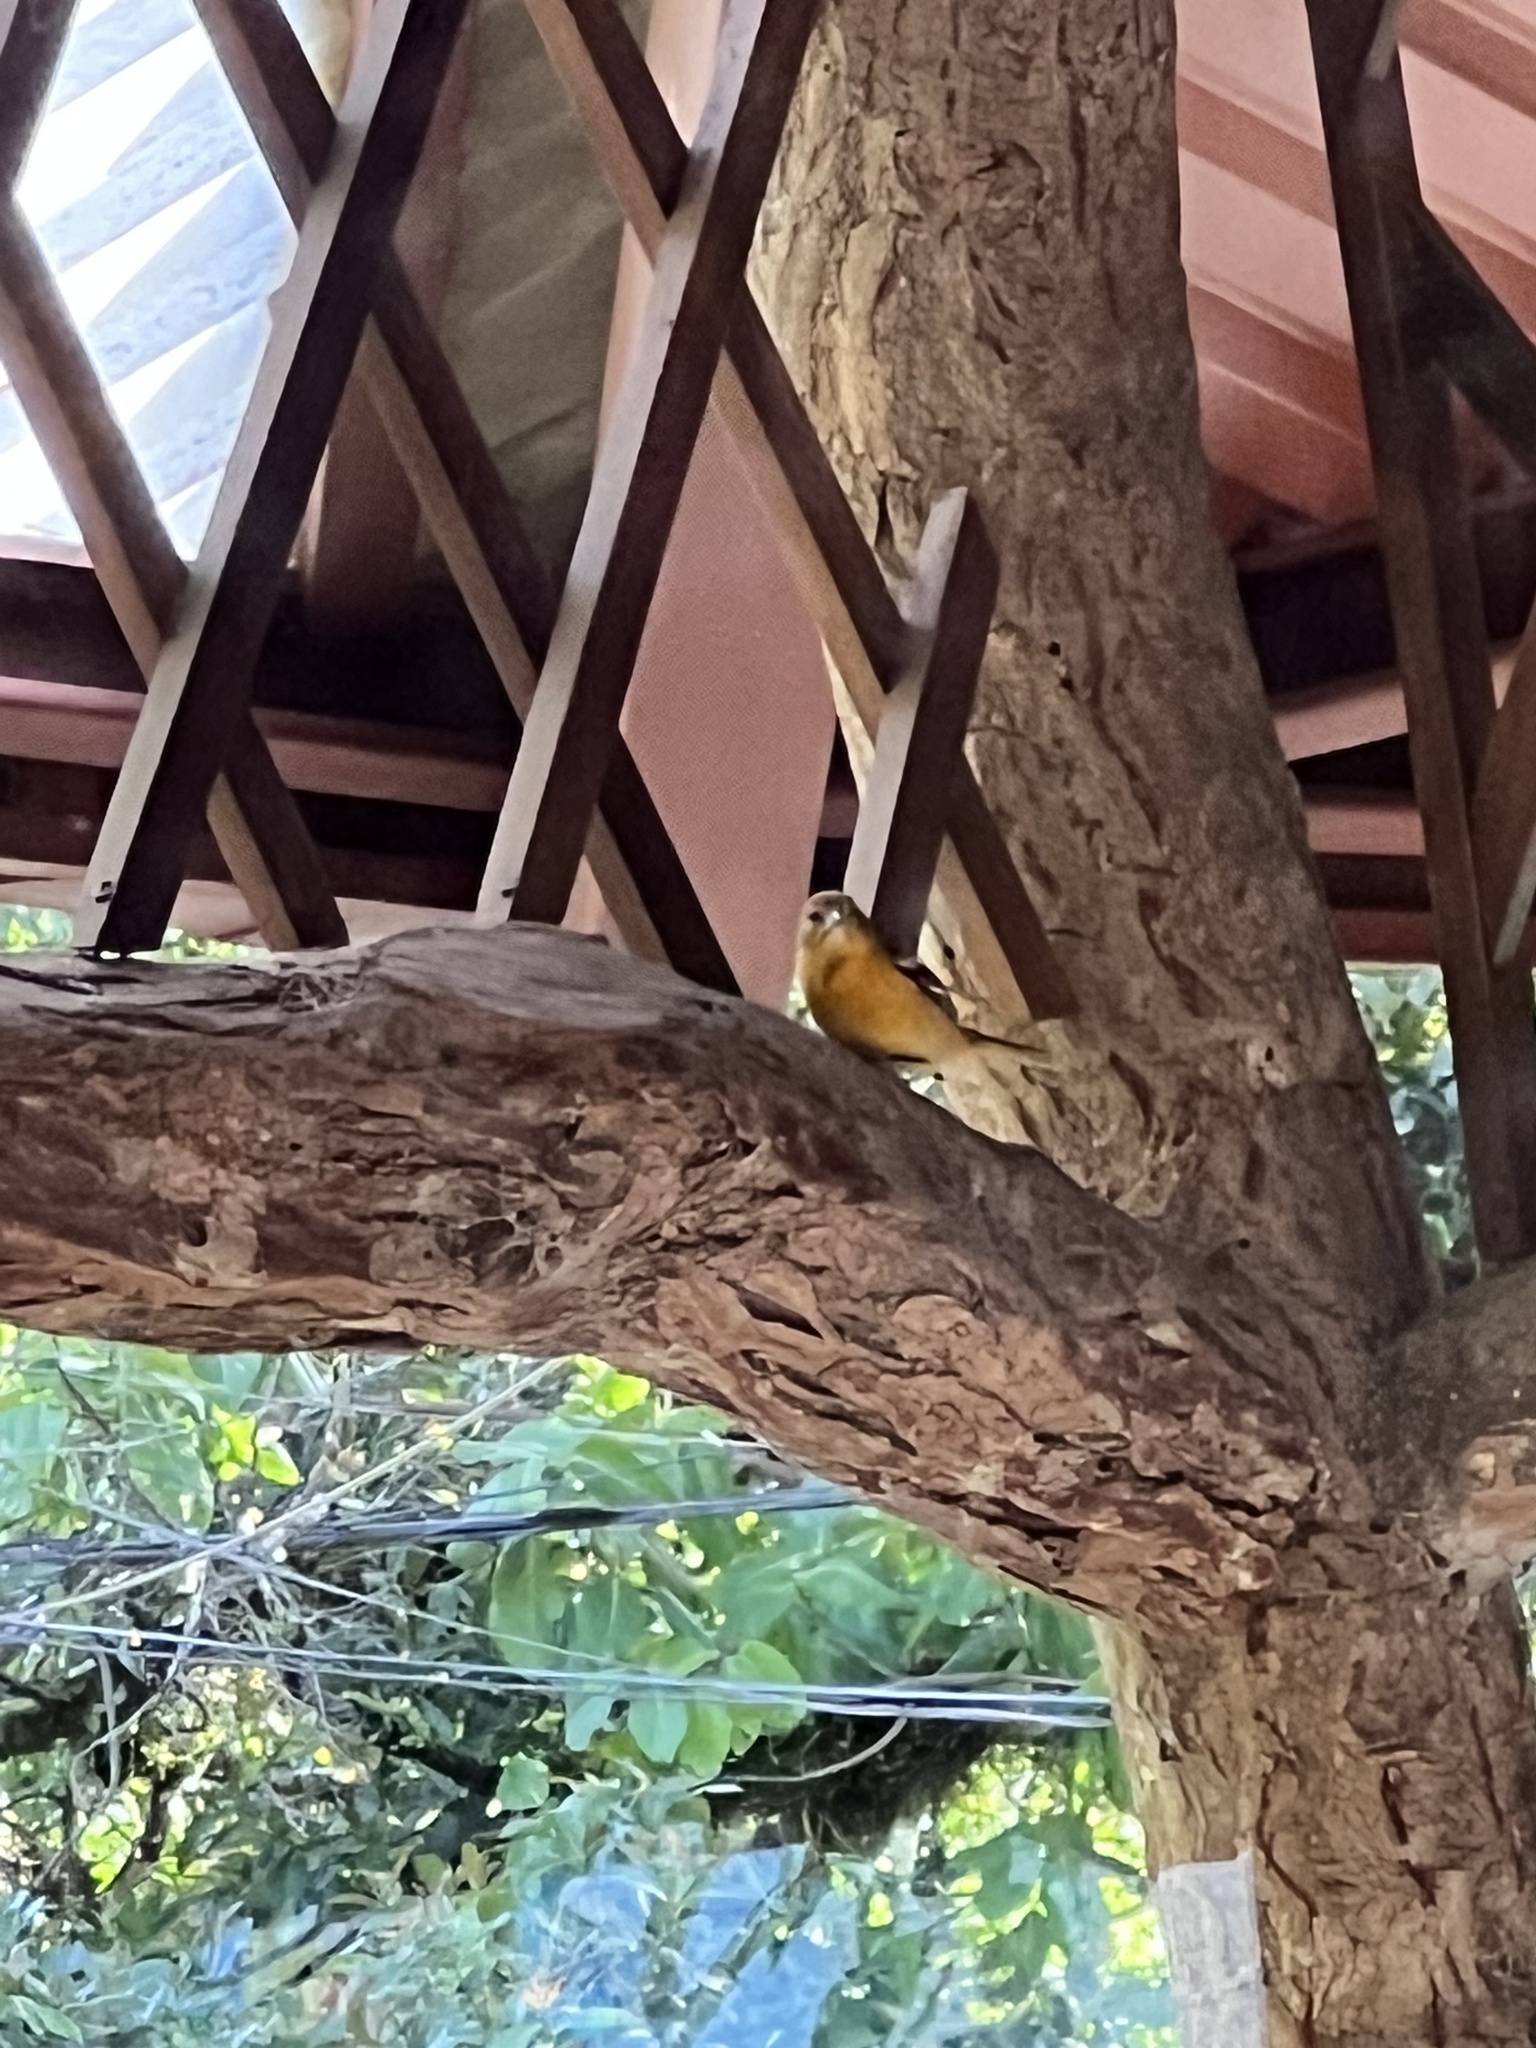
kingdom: Animalia
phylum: Chordata
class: Aves
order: Passeriformes
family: Icteridae
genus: Icterus
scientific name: Icterus galbula
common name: Baltimore oriole
